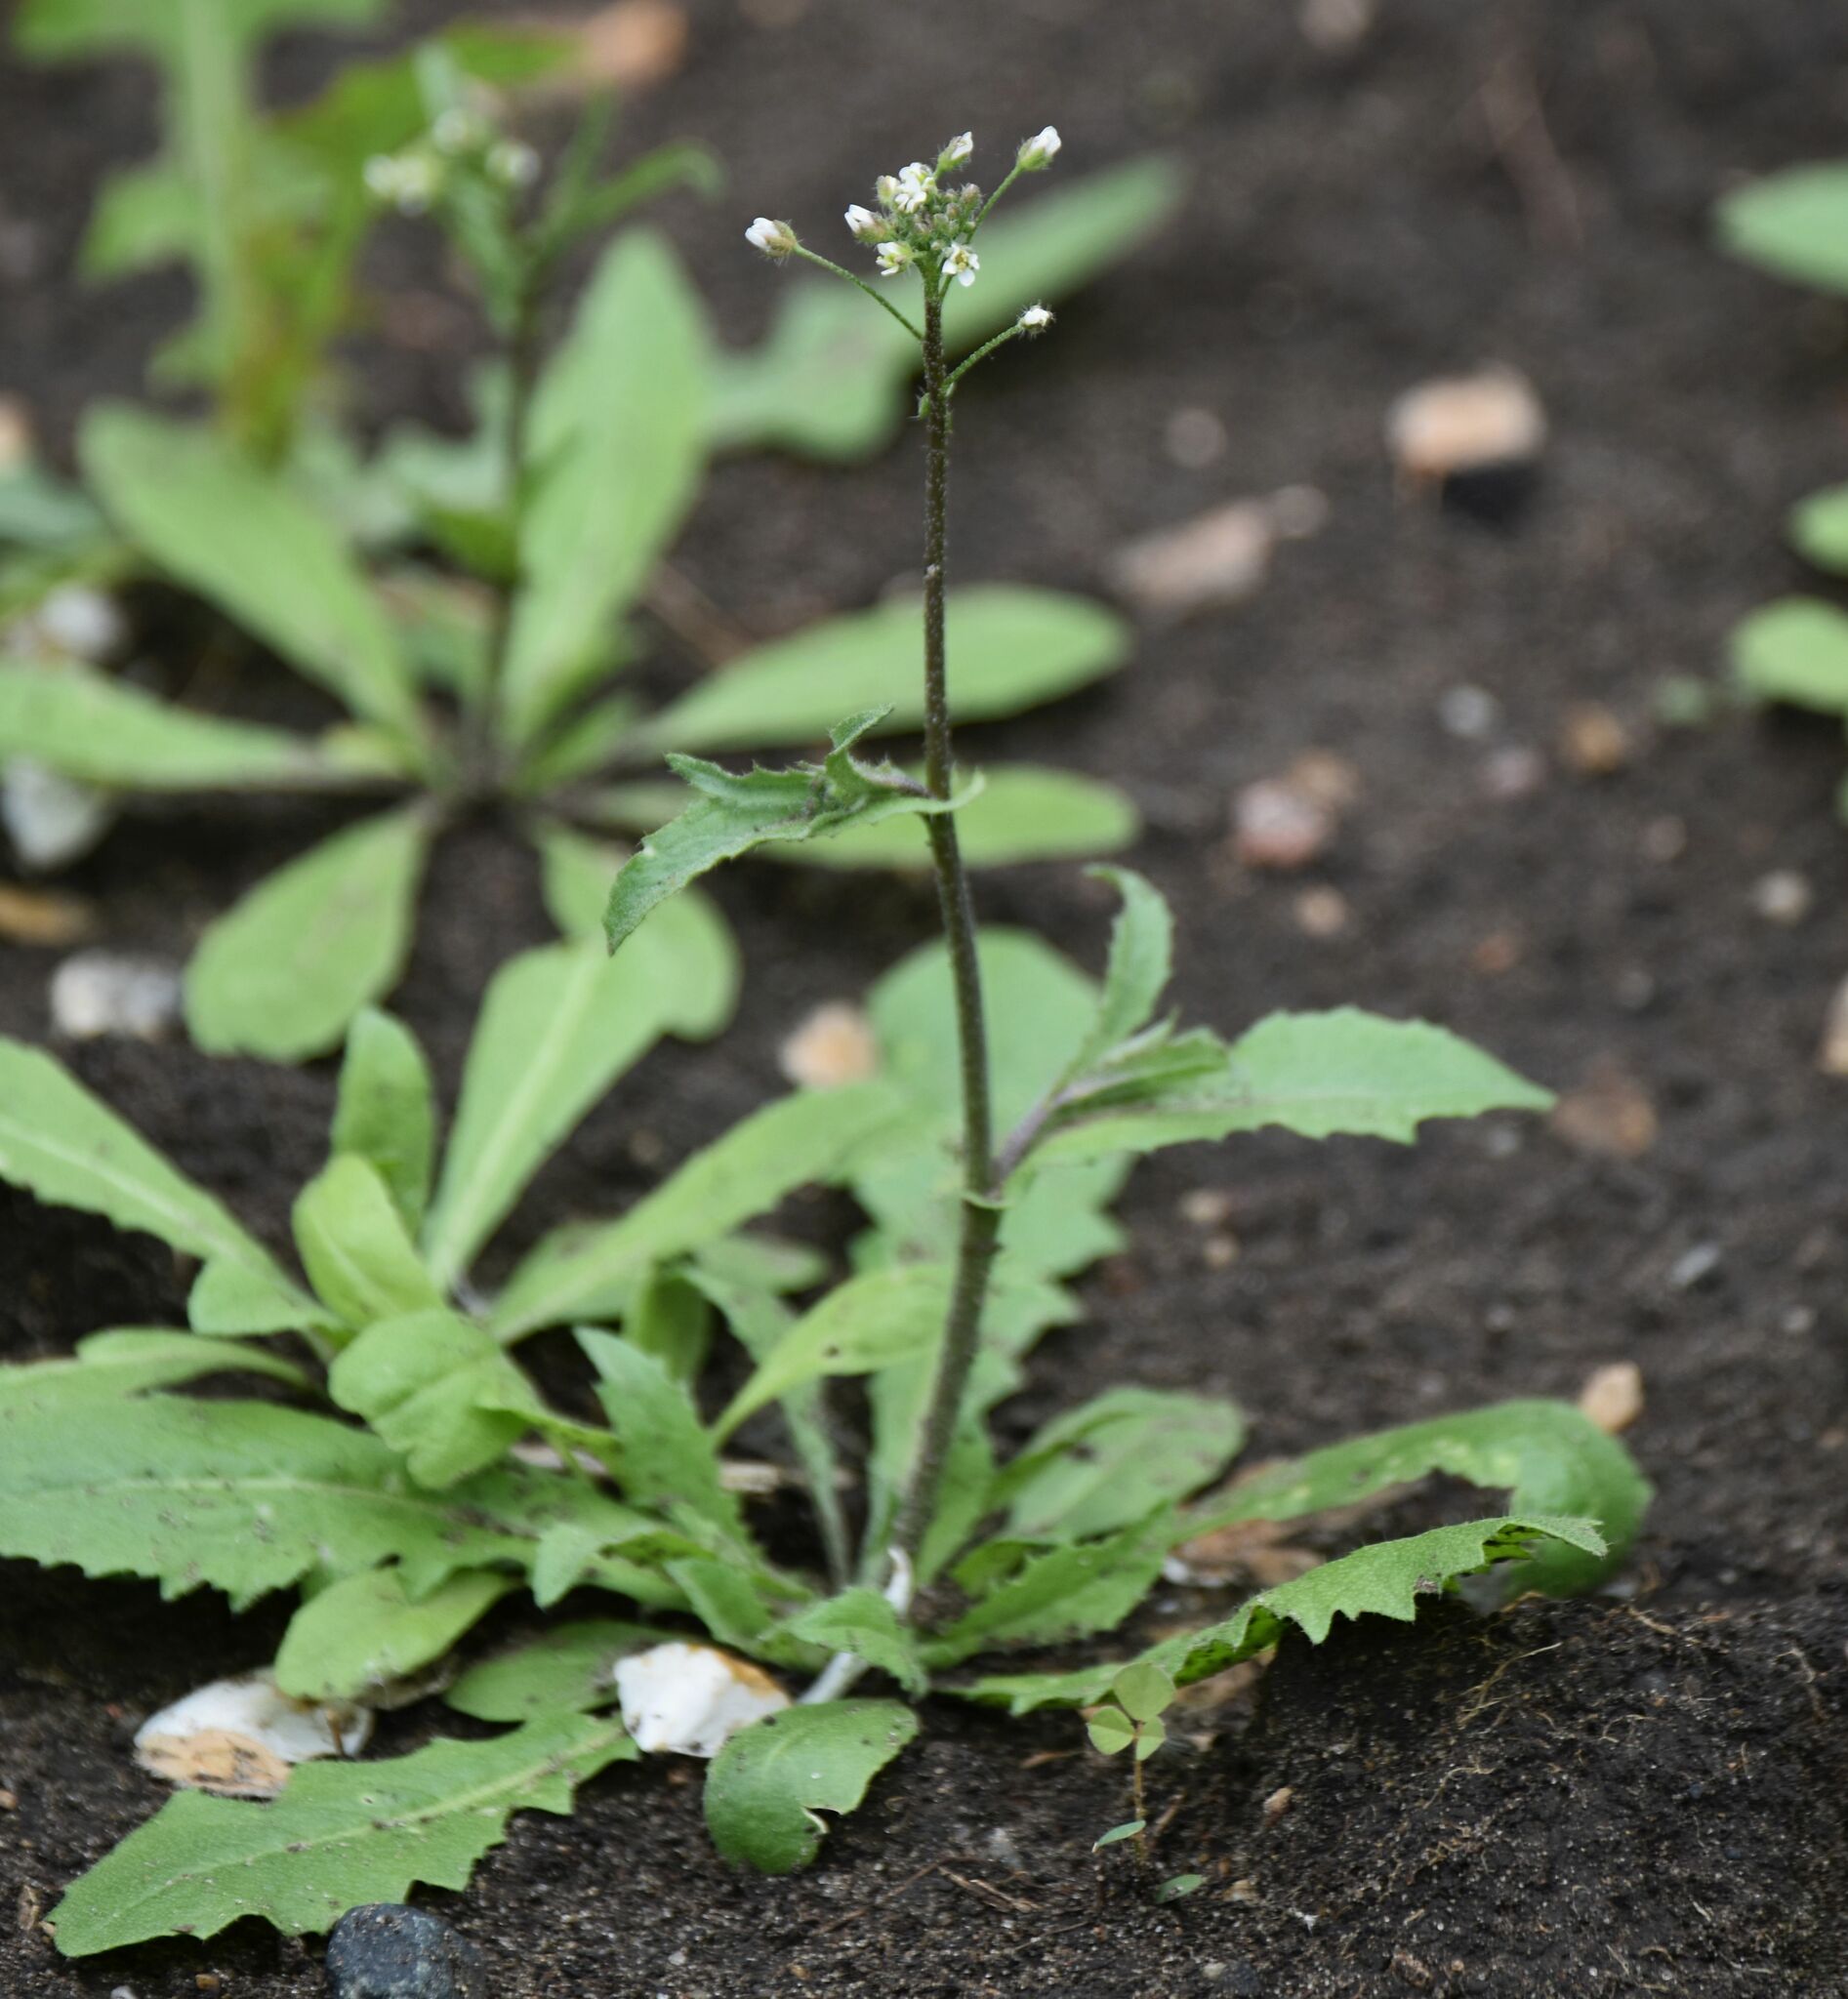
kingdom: Plantae
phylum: Tracheophyta
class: Magnoliopsida
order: Brassicales
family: Brassicaceae
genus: Capsella
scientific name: Capsella bursa-pastoris
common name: Shepherd's purse
